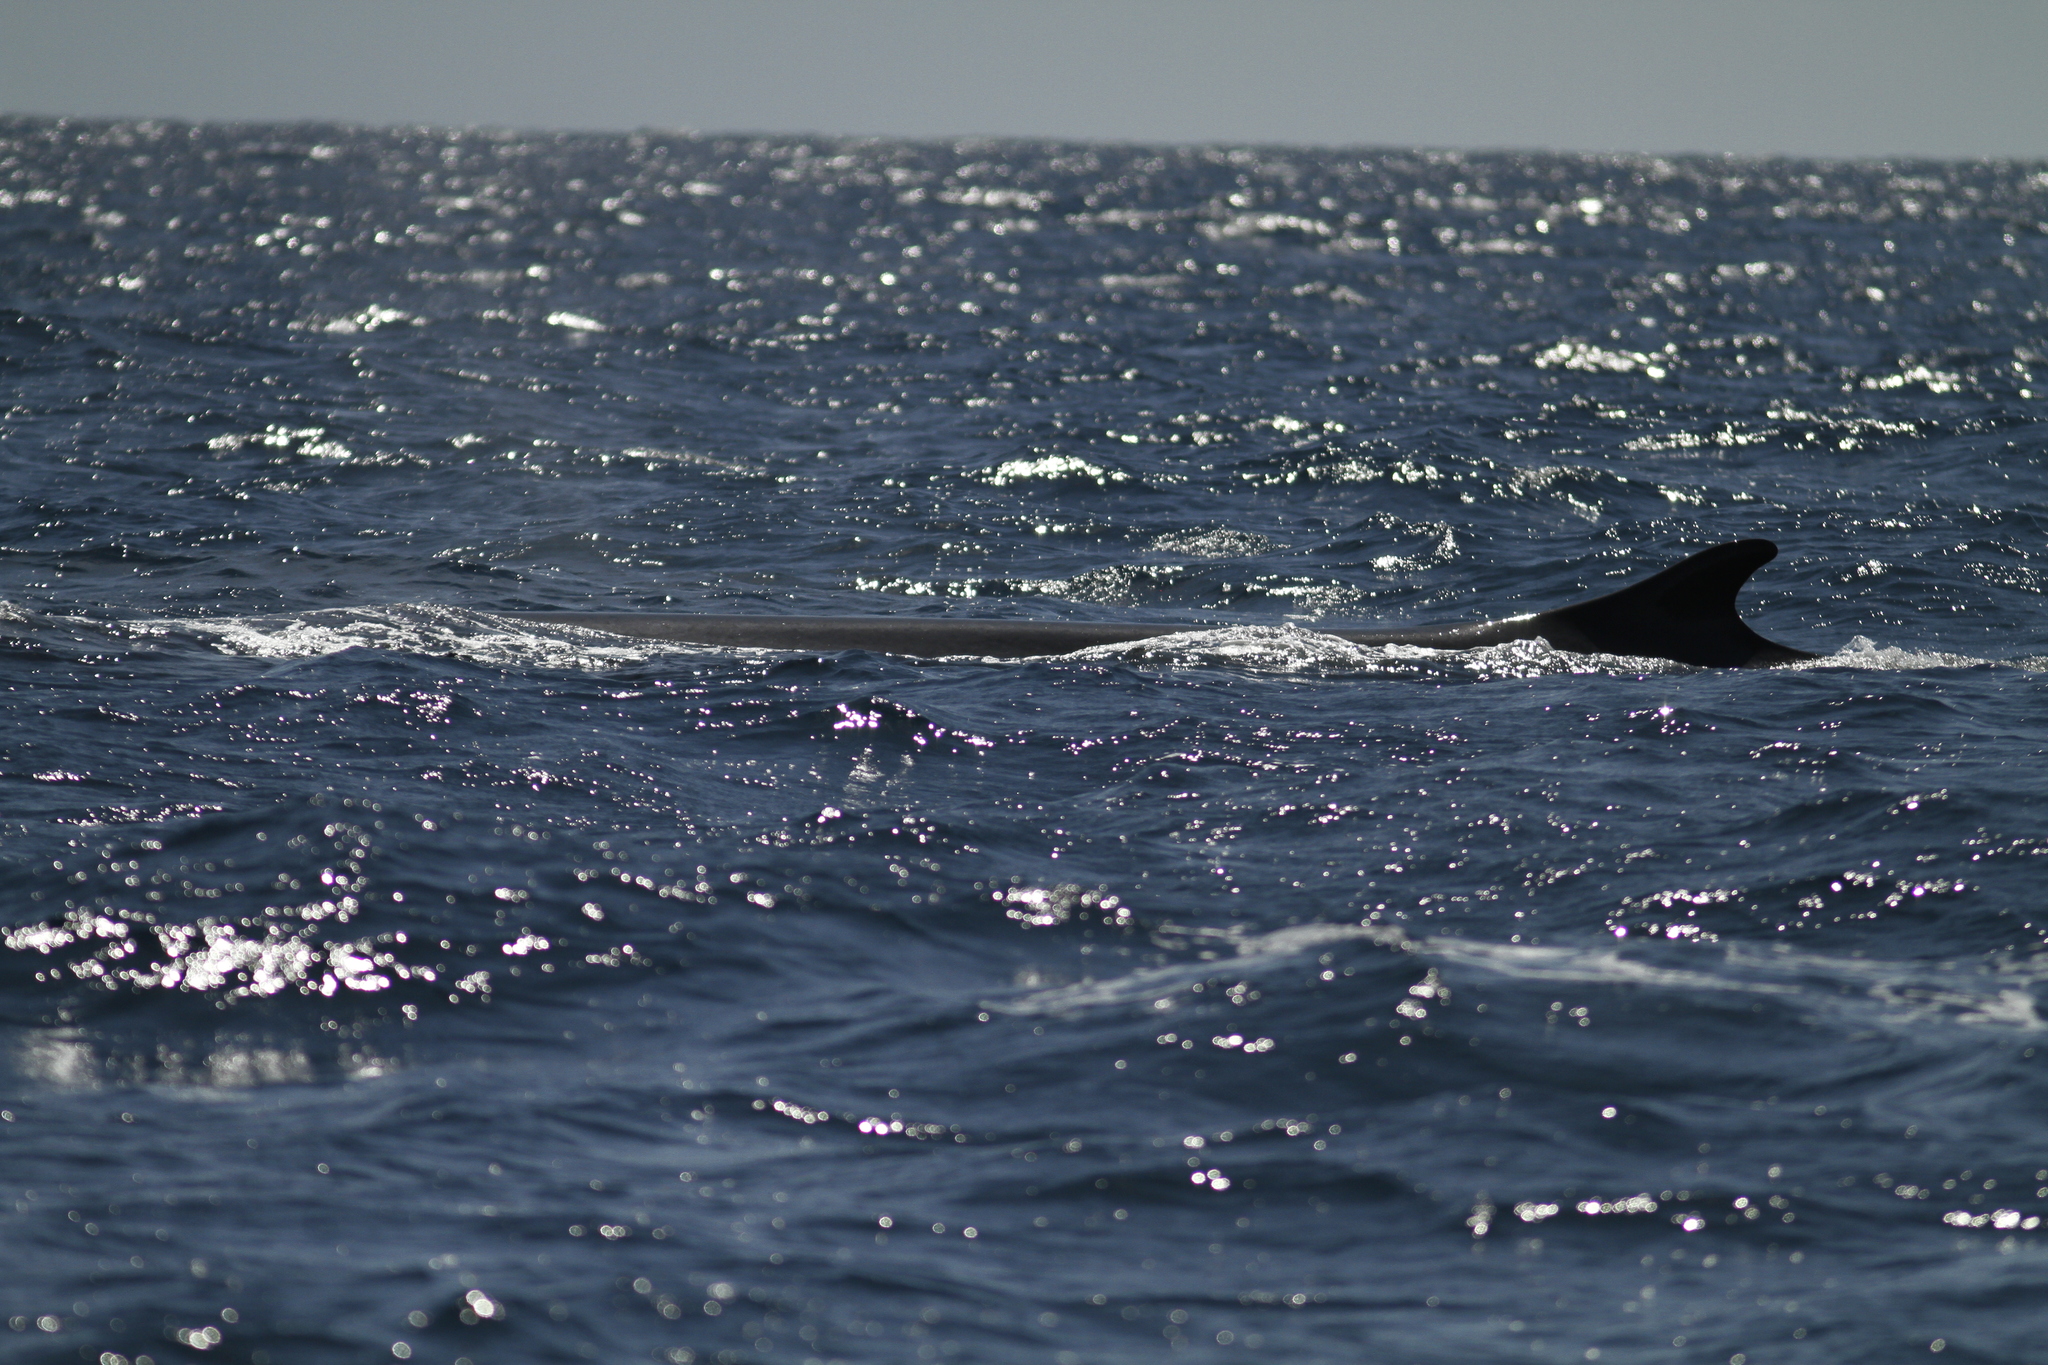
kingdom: Animalia
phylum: Chordata
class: Mammalia
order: Cetacea
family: Balaenopteridae
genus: Balaenoptera
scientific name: Balaenoptera physalus
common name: Fin whale
